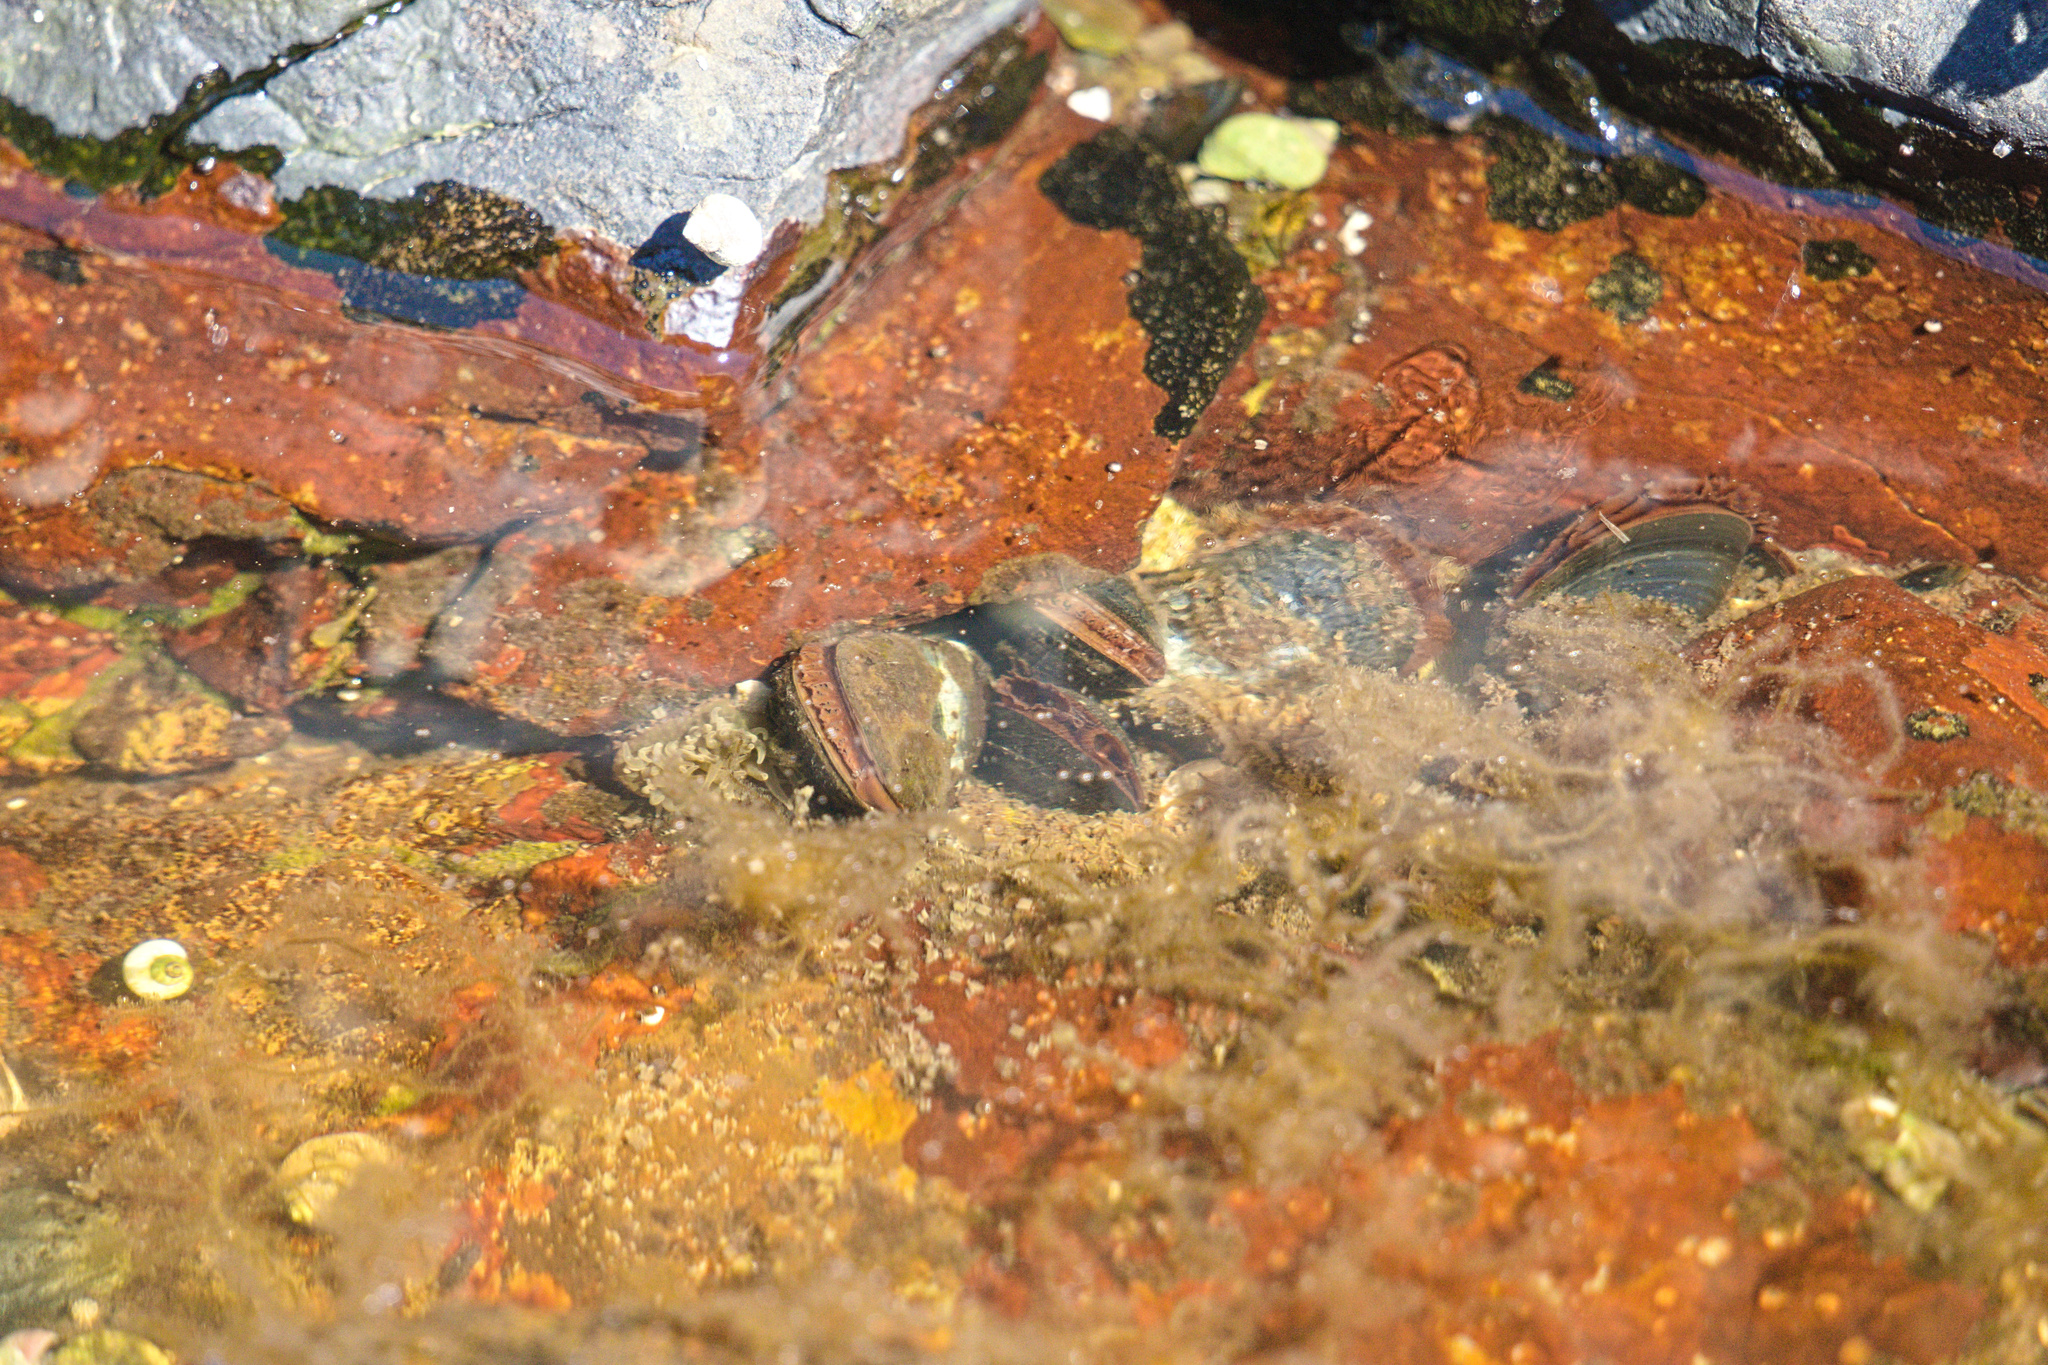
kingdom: Animalia
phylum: Mollusca
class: Bivalvia
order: Mytilida
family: Mytilidae
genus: Mytilus
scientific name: Mytilus
